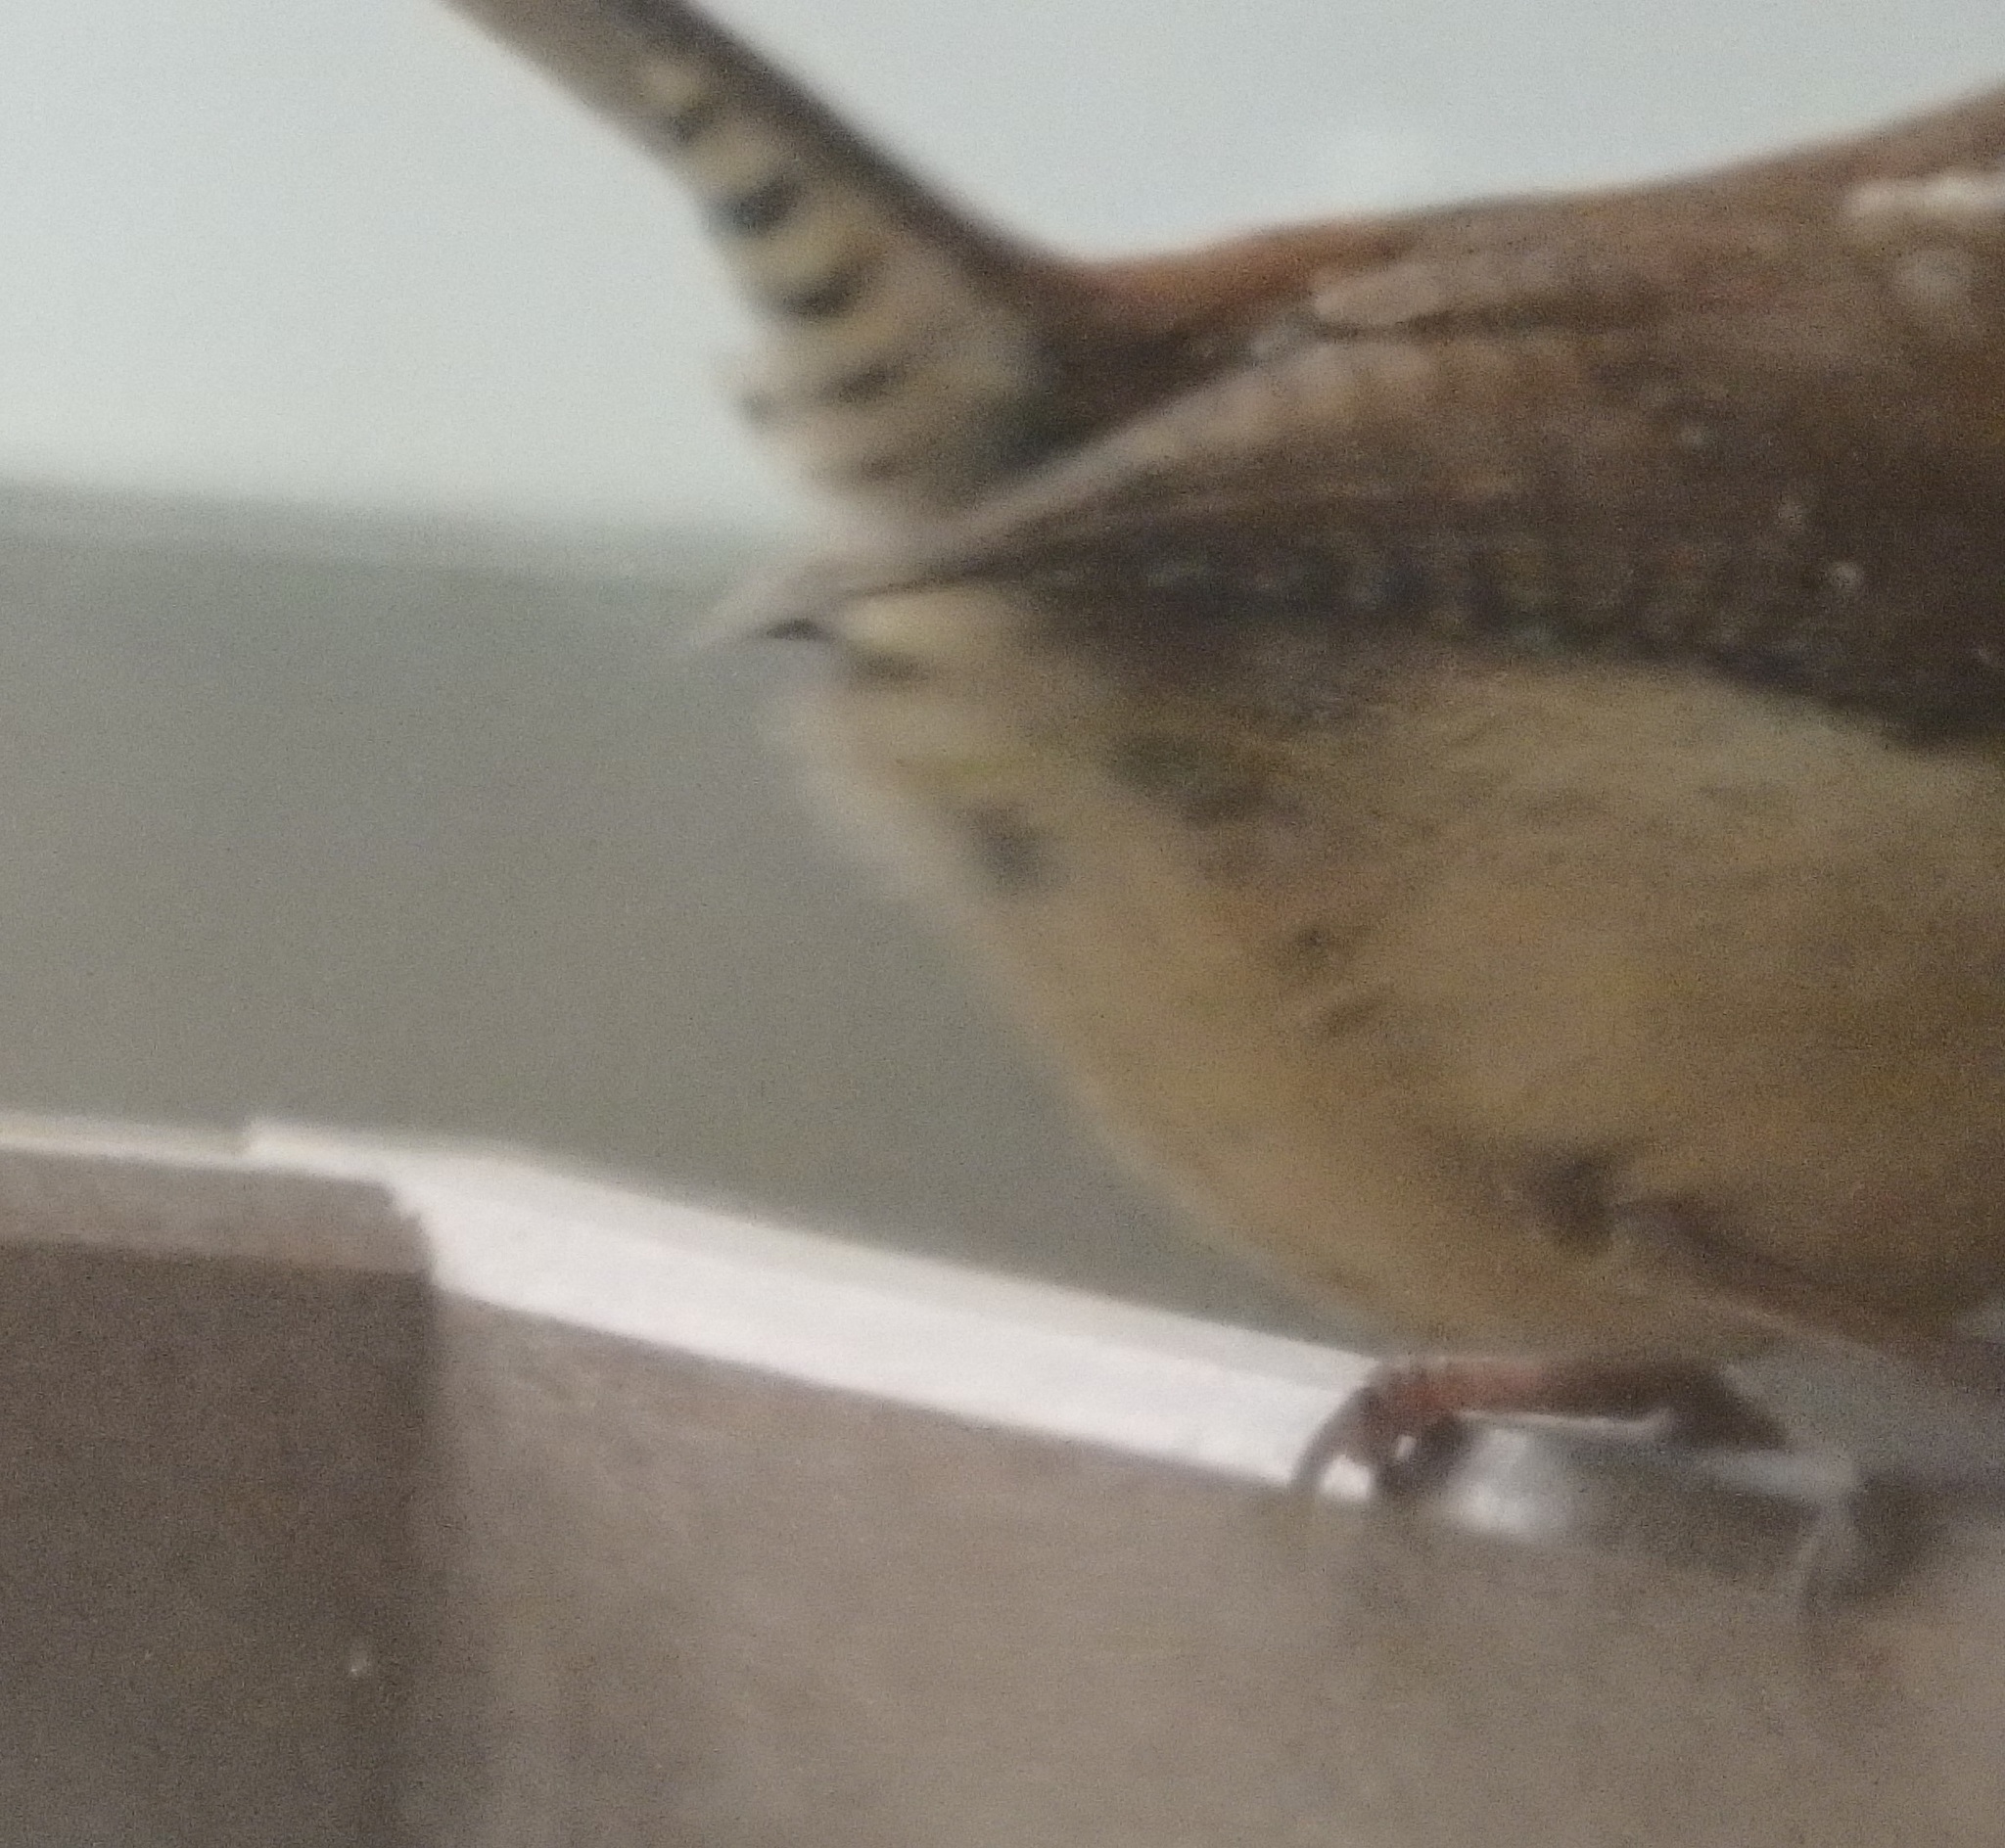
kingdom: Animalia
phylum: Chordata
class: Aves
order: Passeriformes
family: Troglodytidae
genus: Thryothorus
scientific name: Thryothorus ludovicianus
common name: Carolina wren
